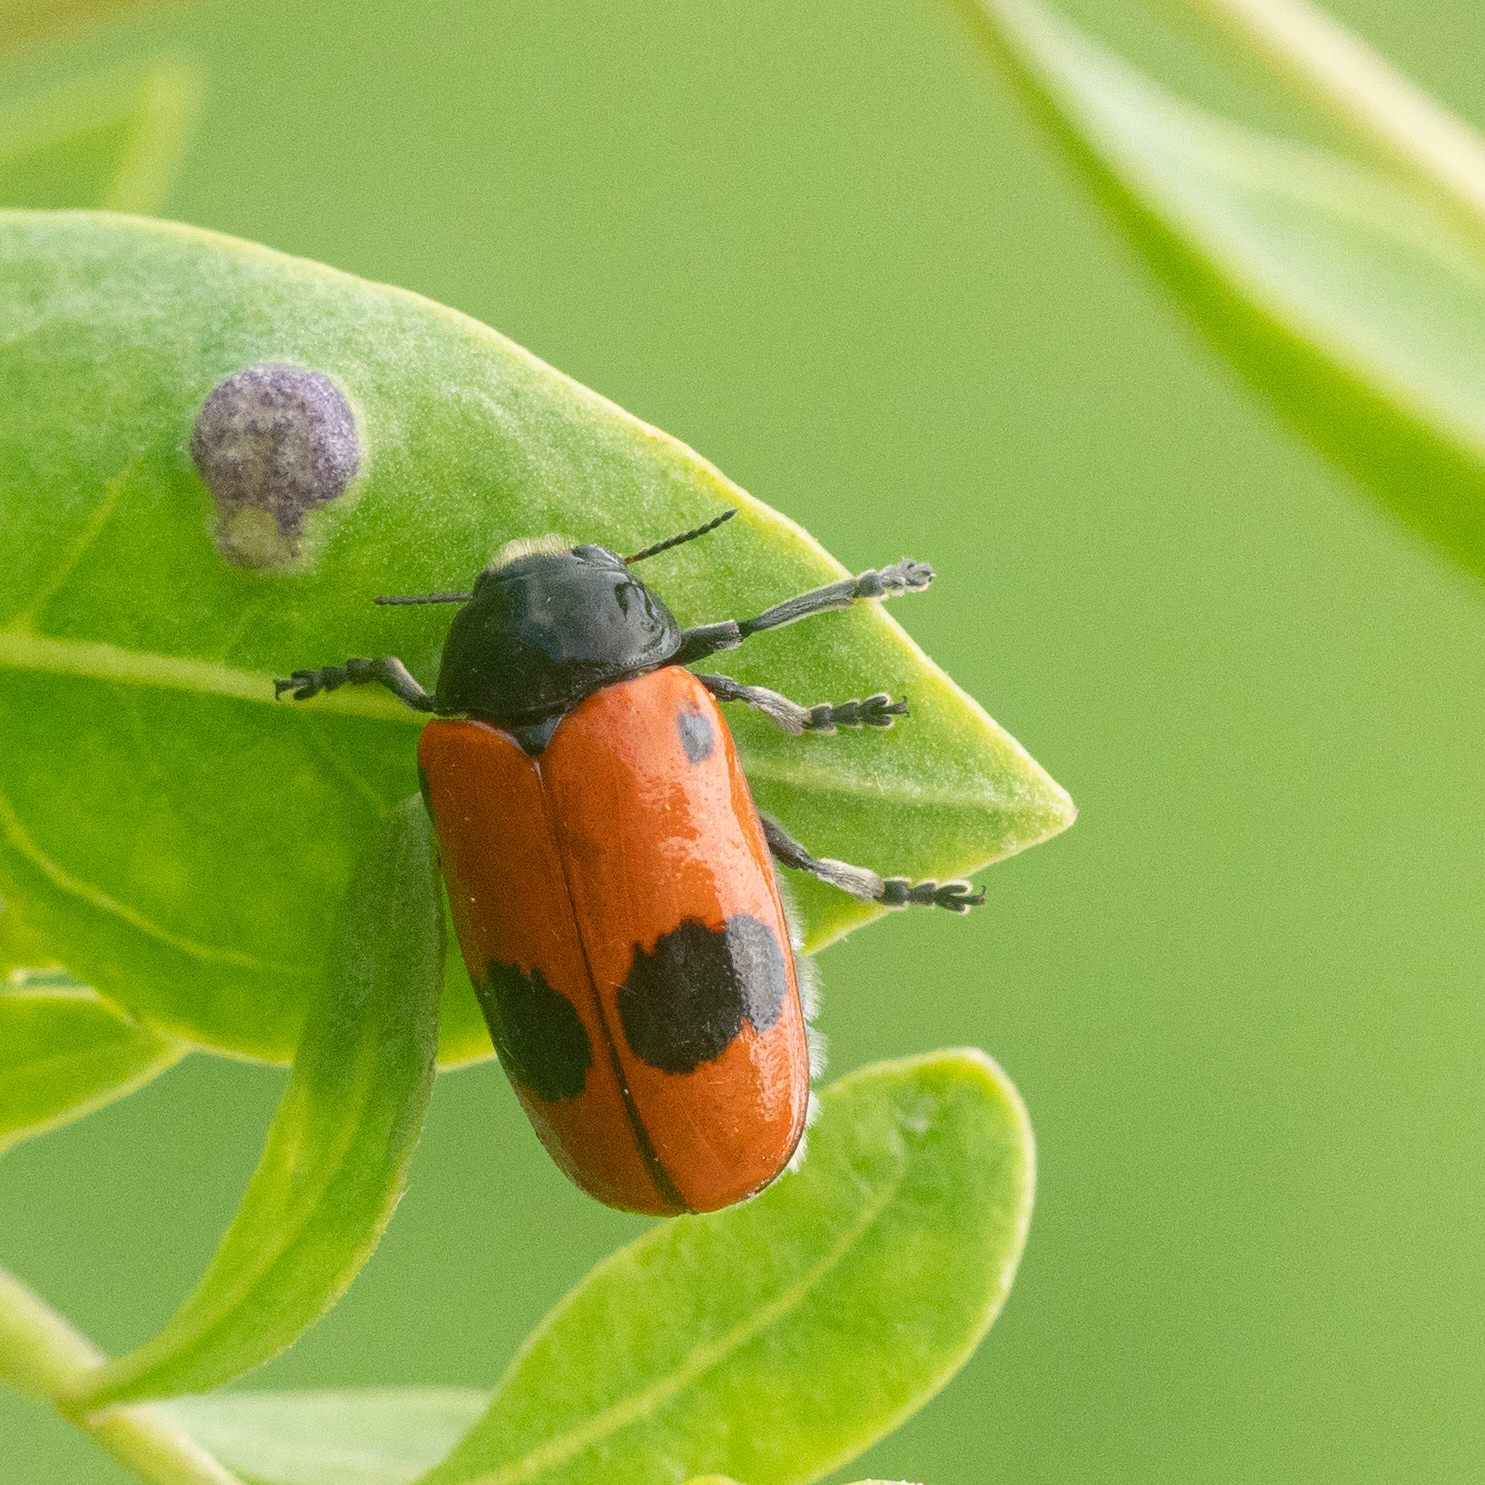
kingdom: Animalia
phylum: Arthropoda
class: Insecta
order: Coleoptera
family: Chrysomelidae
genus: Clytra
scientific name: Clytra laeviuscula
